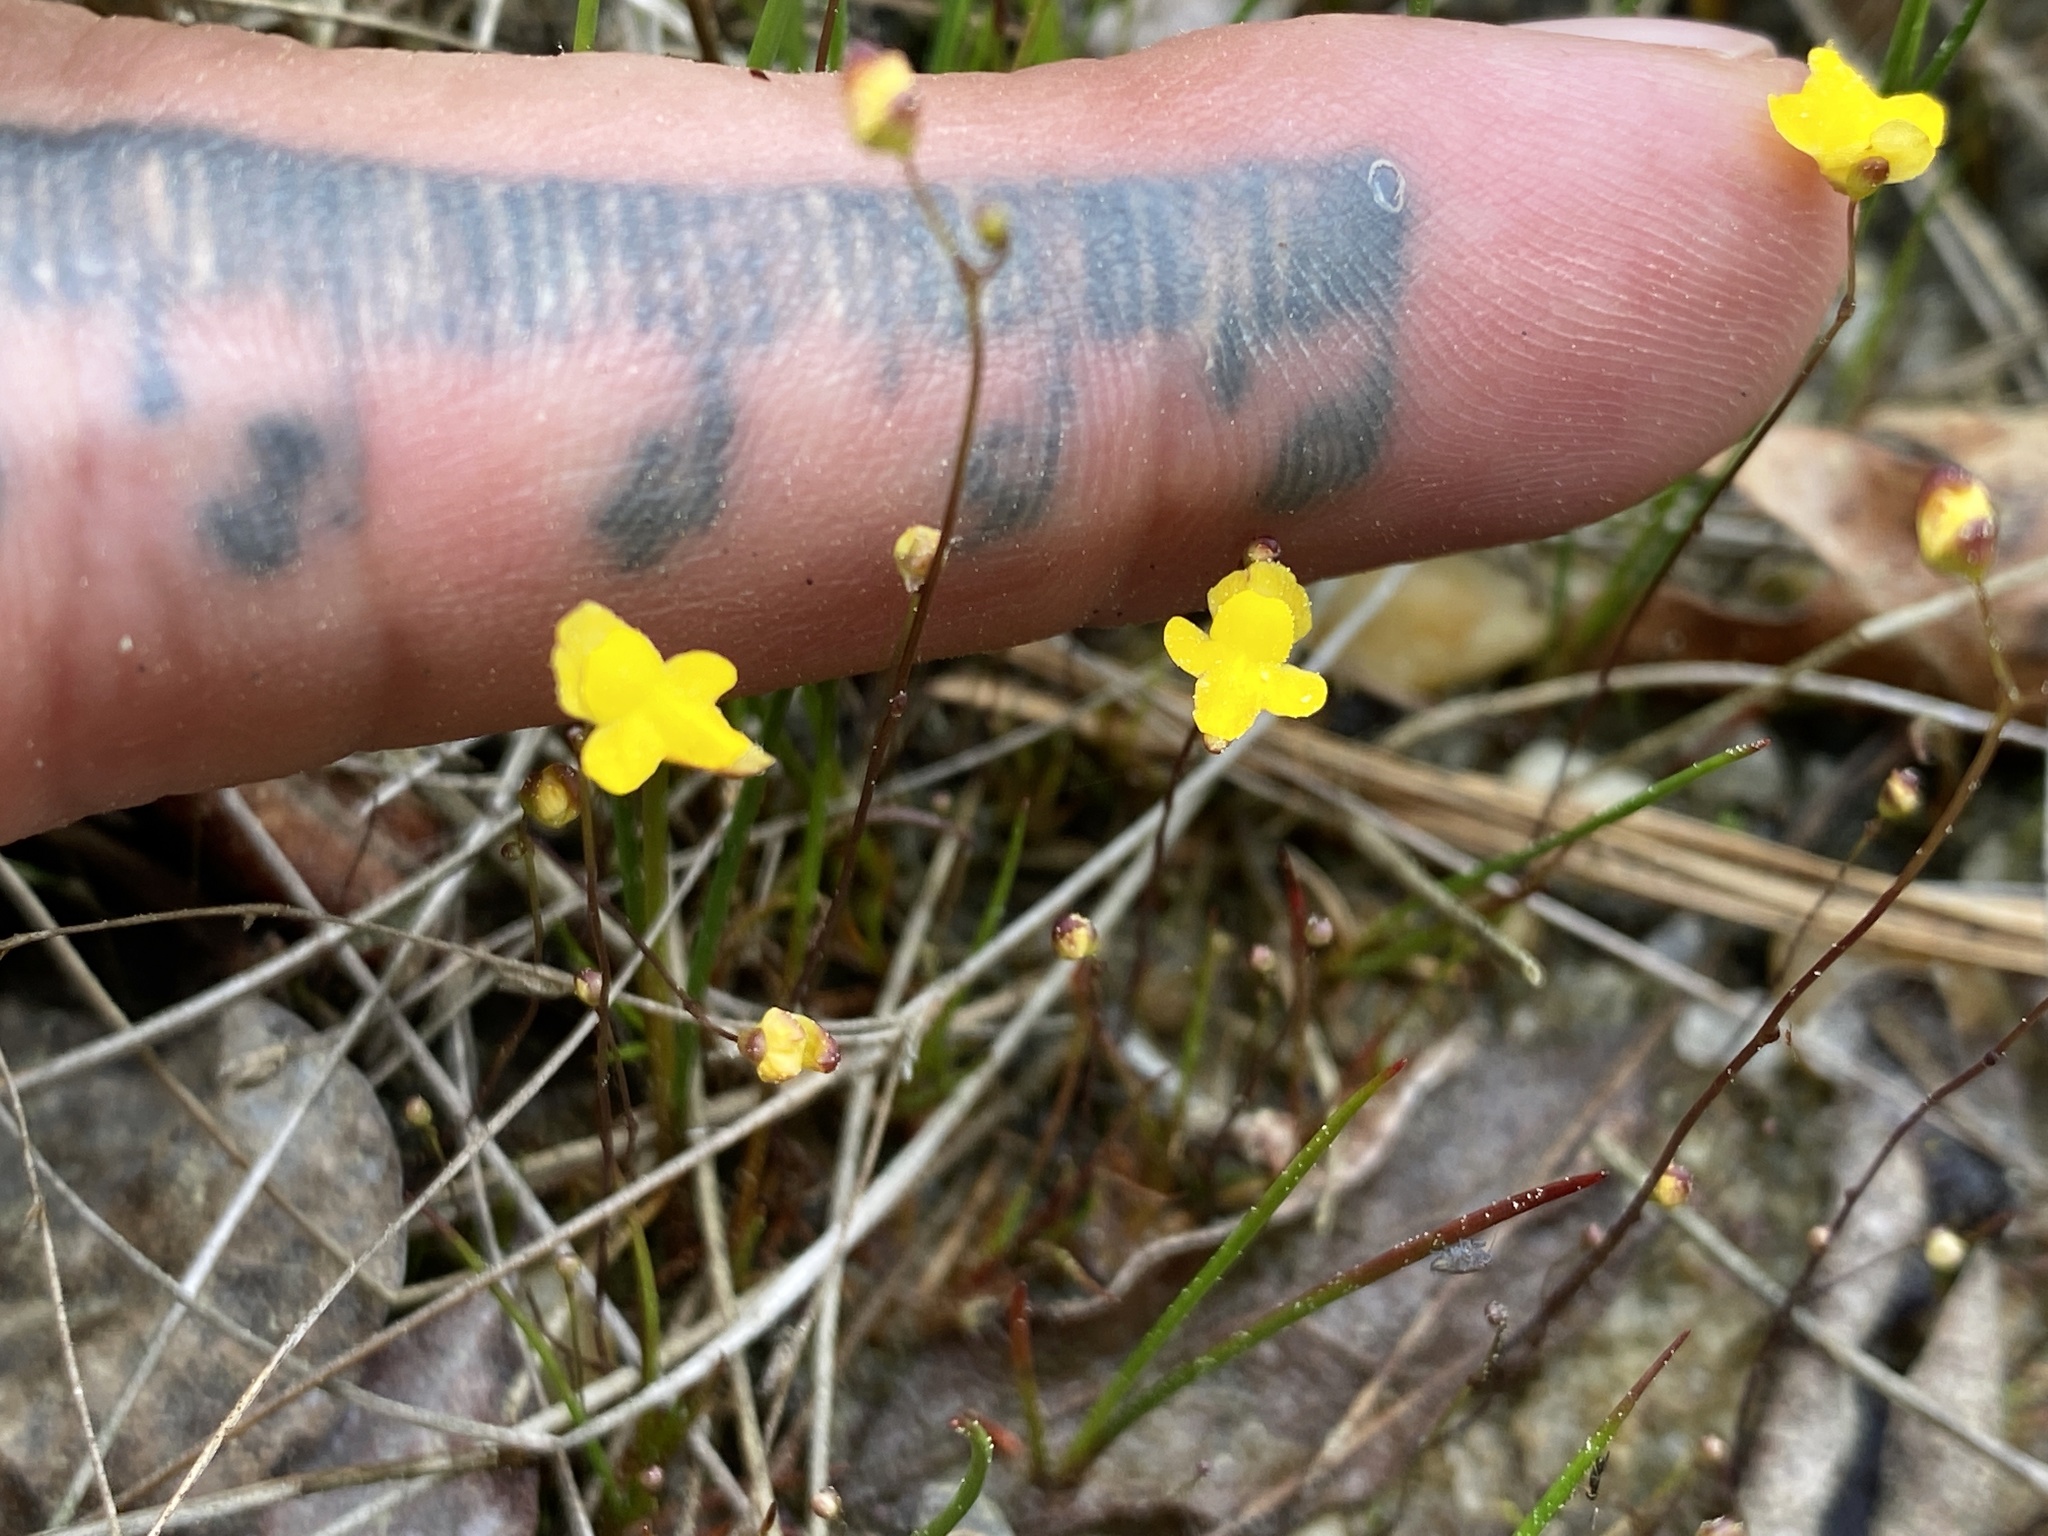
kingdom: Plantae
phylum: Tracheophyta
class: Magnoliopsida
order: Lamiales
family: Lentibulariaceae
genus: Utricularia
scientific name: Utricularia subulata
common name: Tiny bladderwort
